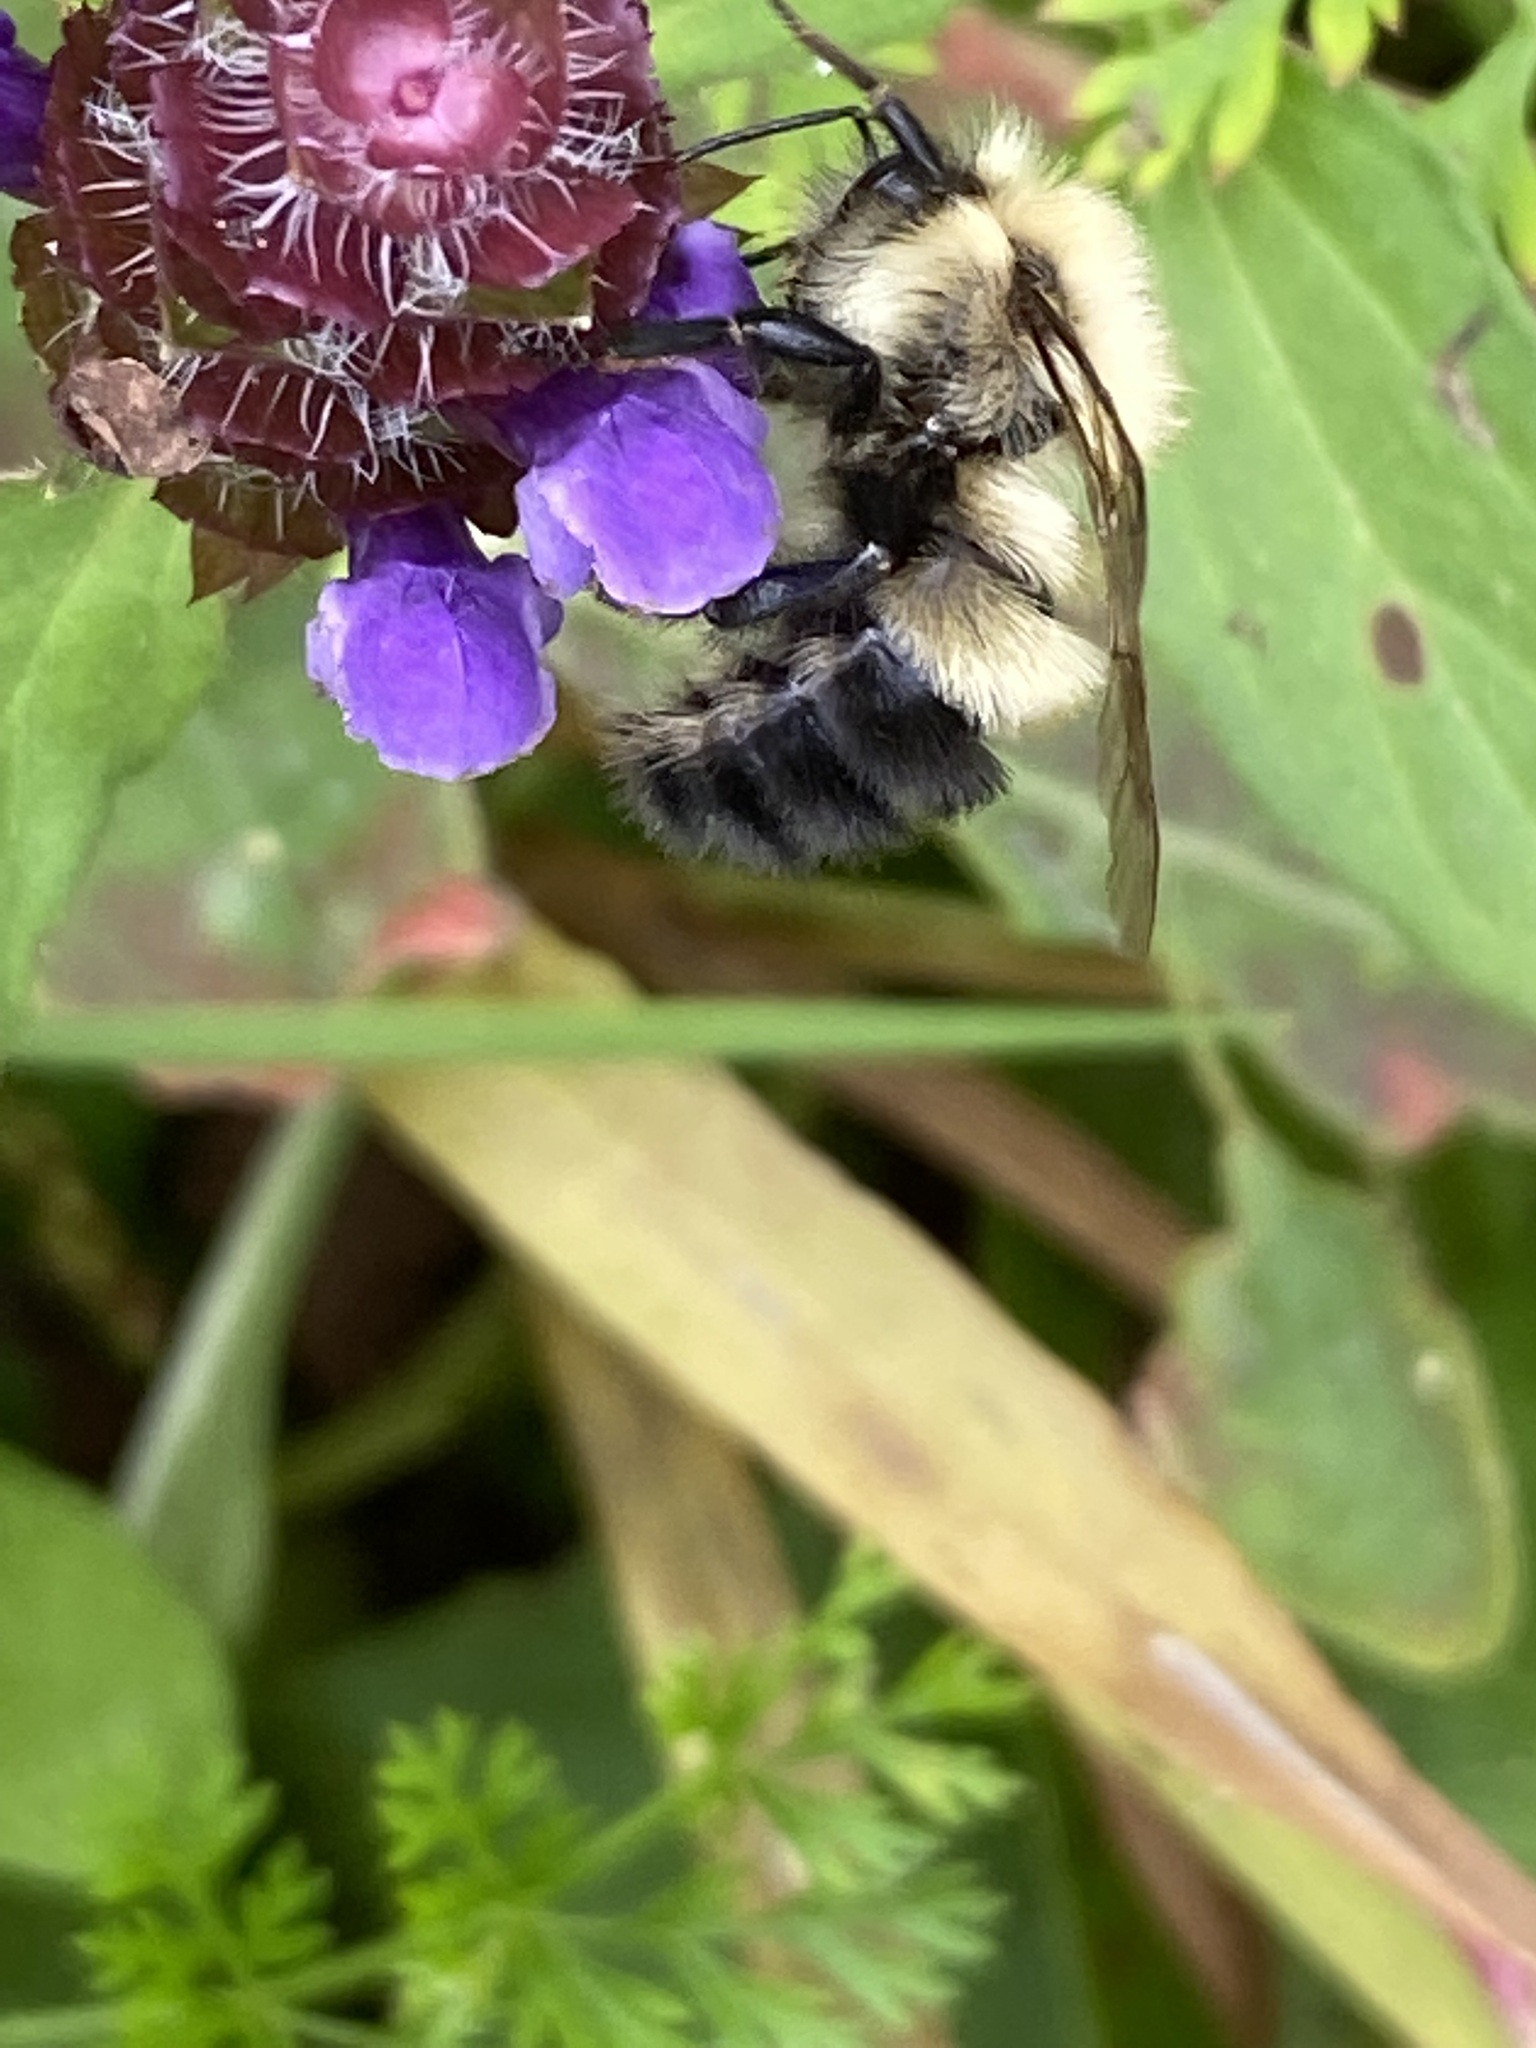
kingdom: Animalia
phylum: Arthropoda
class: Insecta
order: Hymenoptera
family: Apidae
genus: Bombus
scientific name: Bombus vagans
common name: Half-black bumble bee
